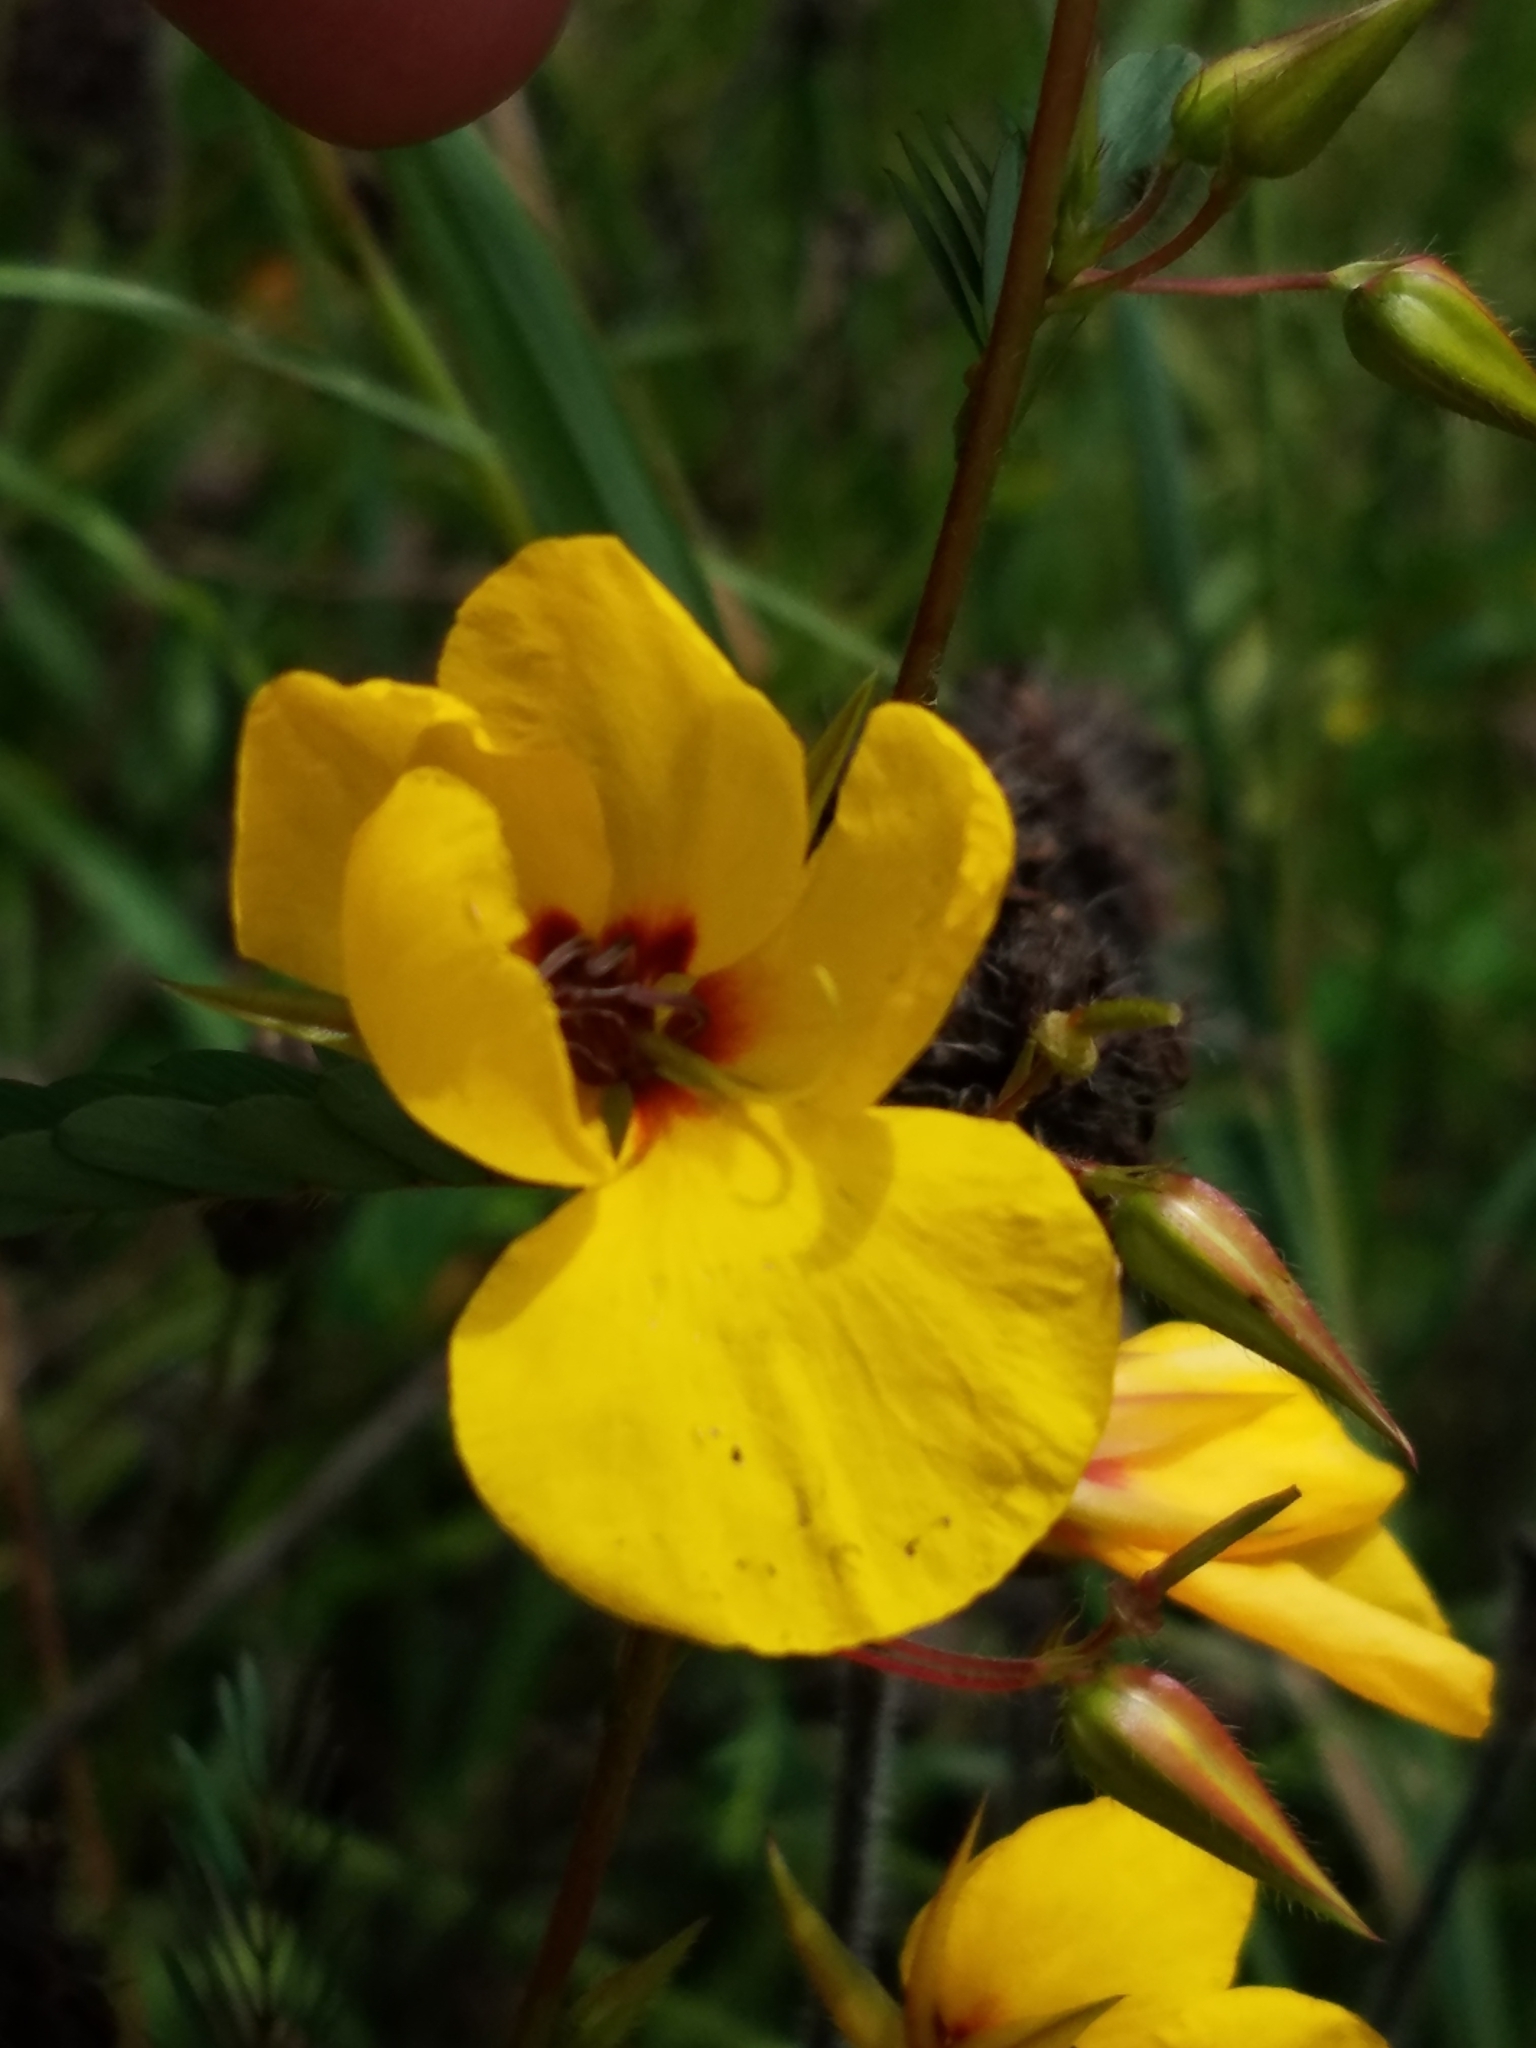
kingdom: Plantae
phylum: Tracheophyta
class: Magnoliopsida
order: Fabales
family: Fabaceae
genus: Chamaecrista
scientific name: Chamaecrista fasciculata
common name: Golden cassia
